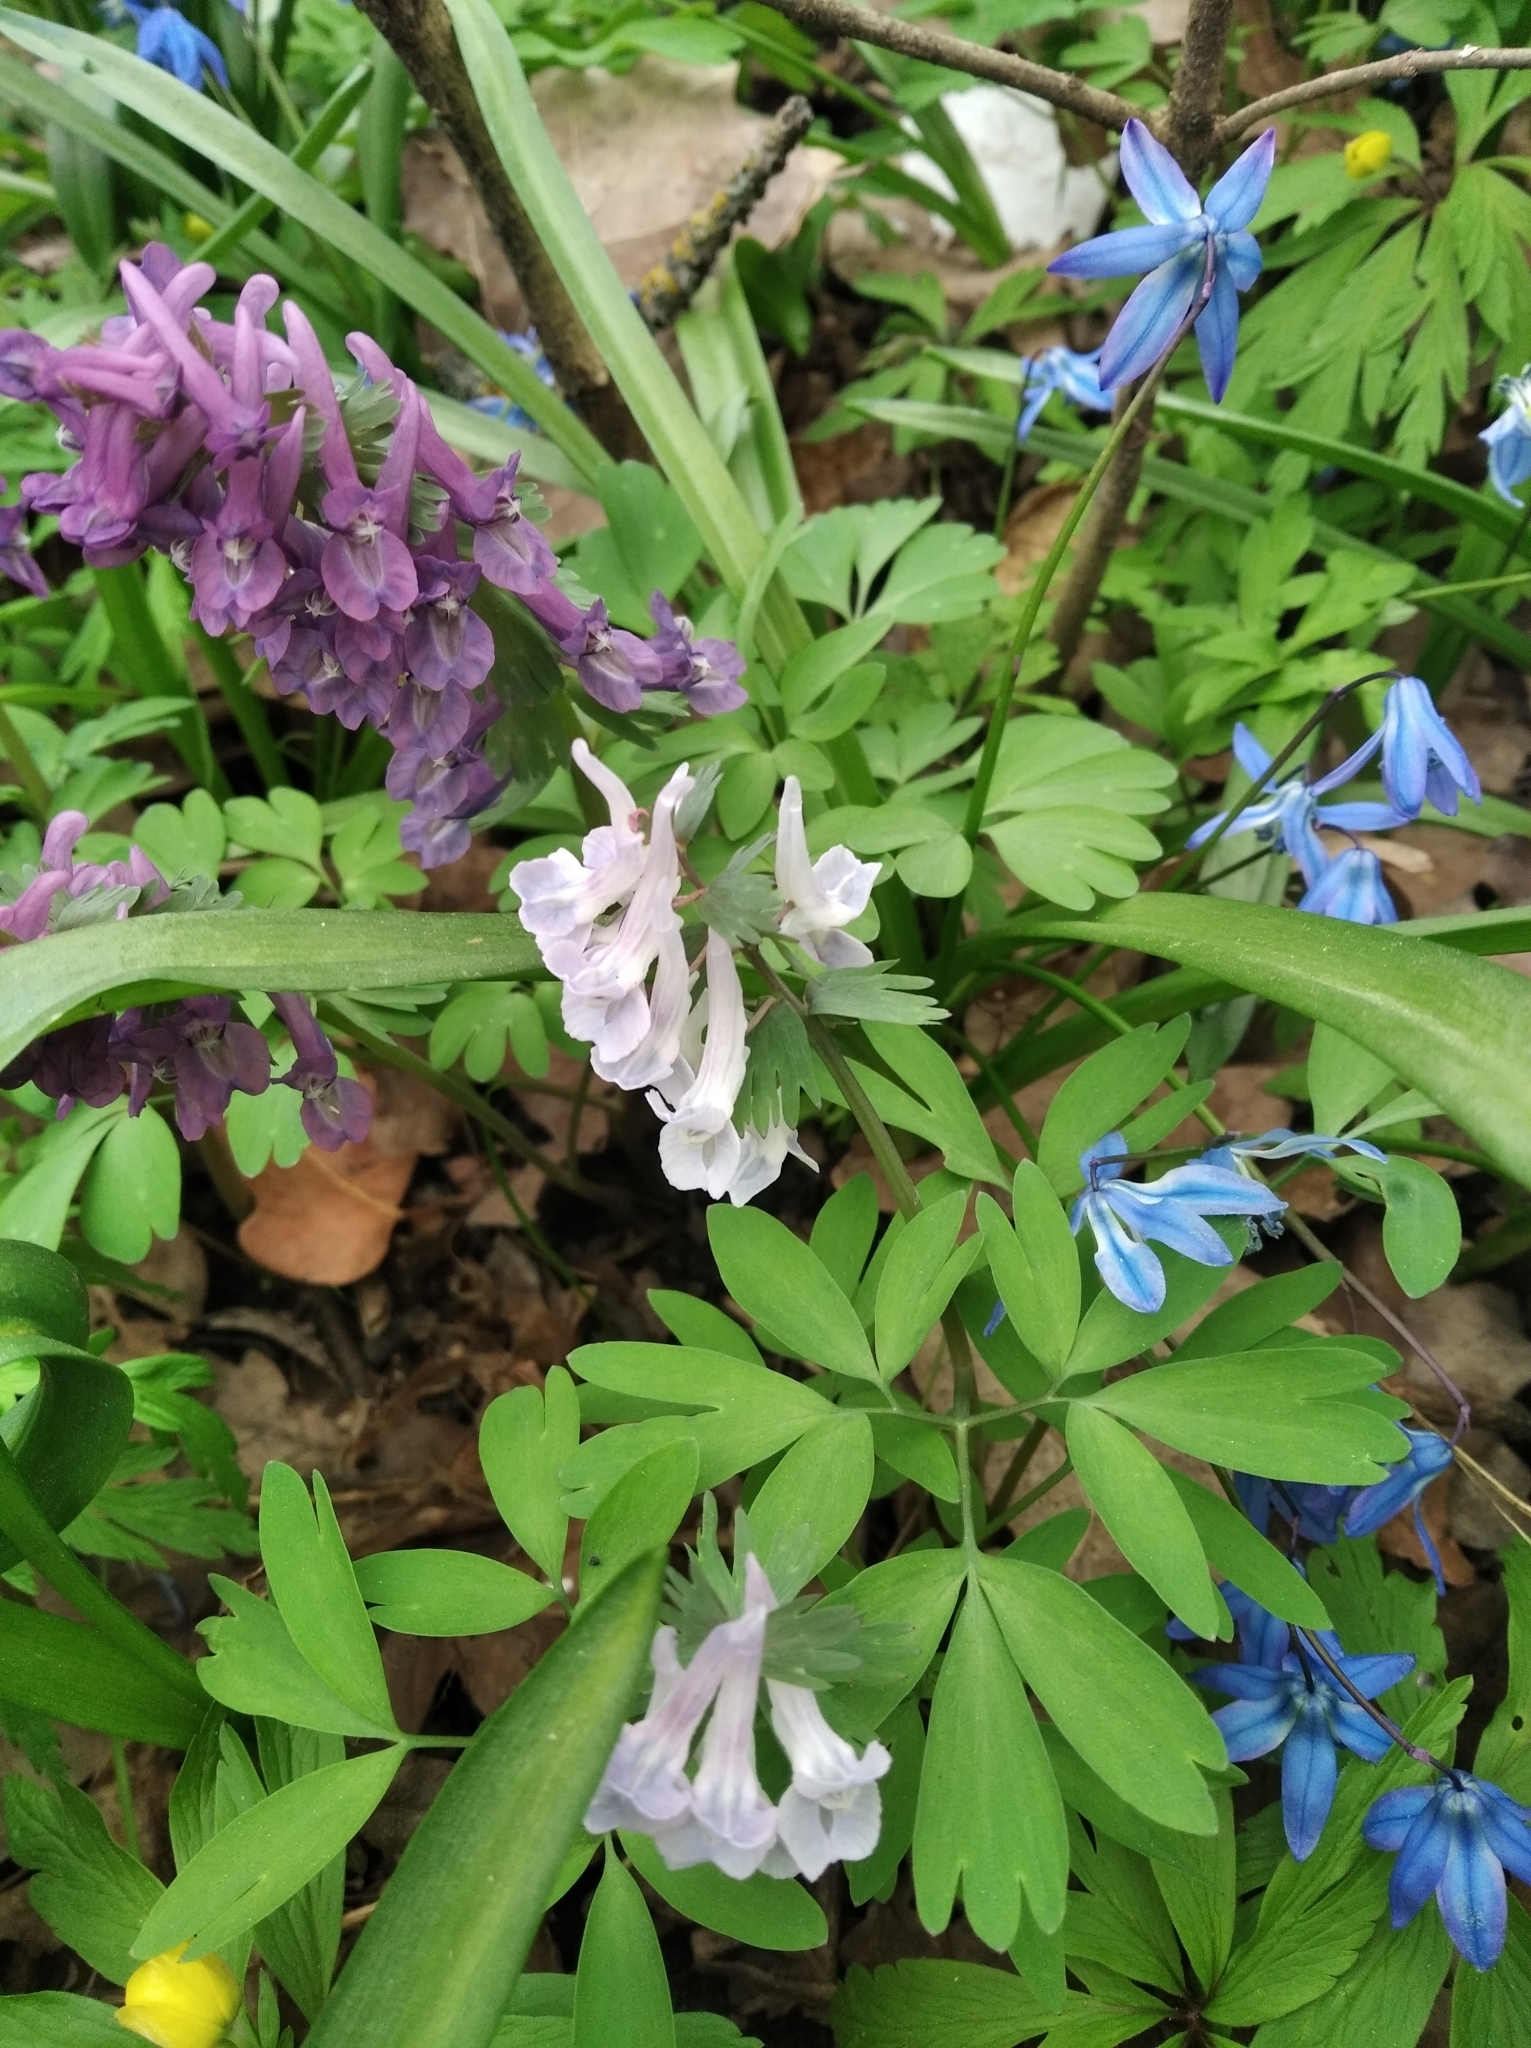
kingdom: Plantae
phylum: Tracheophyta
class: Magnoliopsida
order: Ranunculales
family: Papaveraceae
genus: Corydalis
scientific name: Corydalis solida
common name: Bird-in-a-bush
